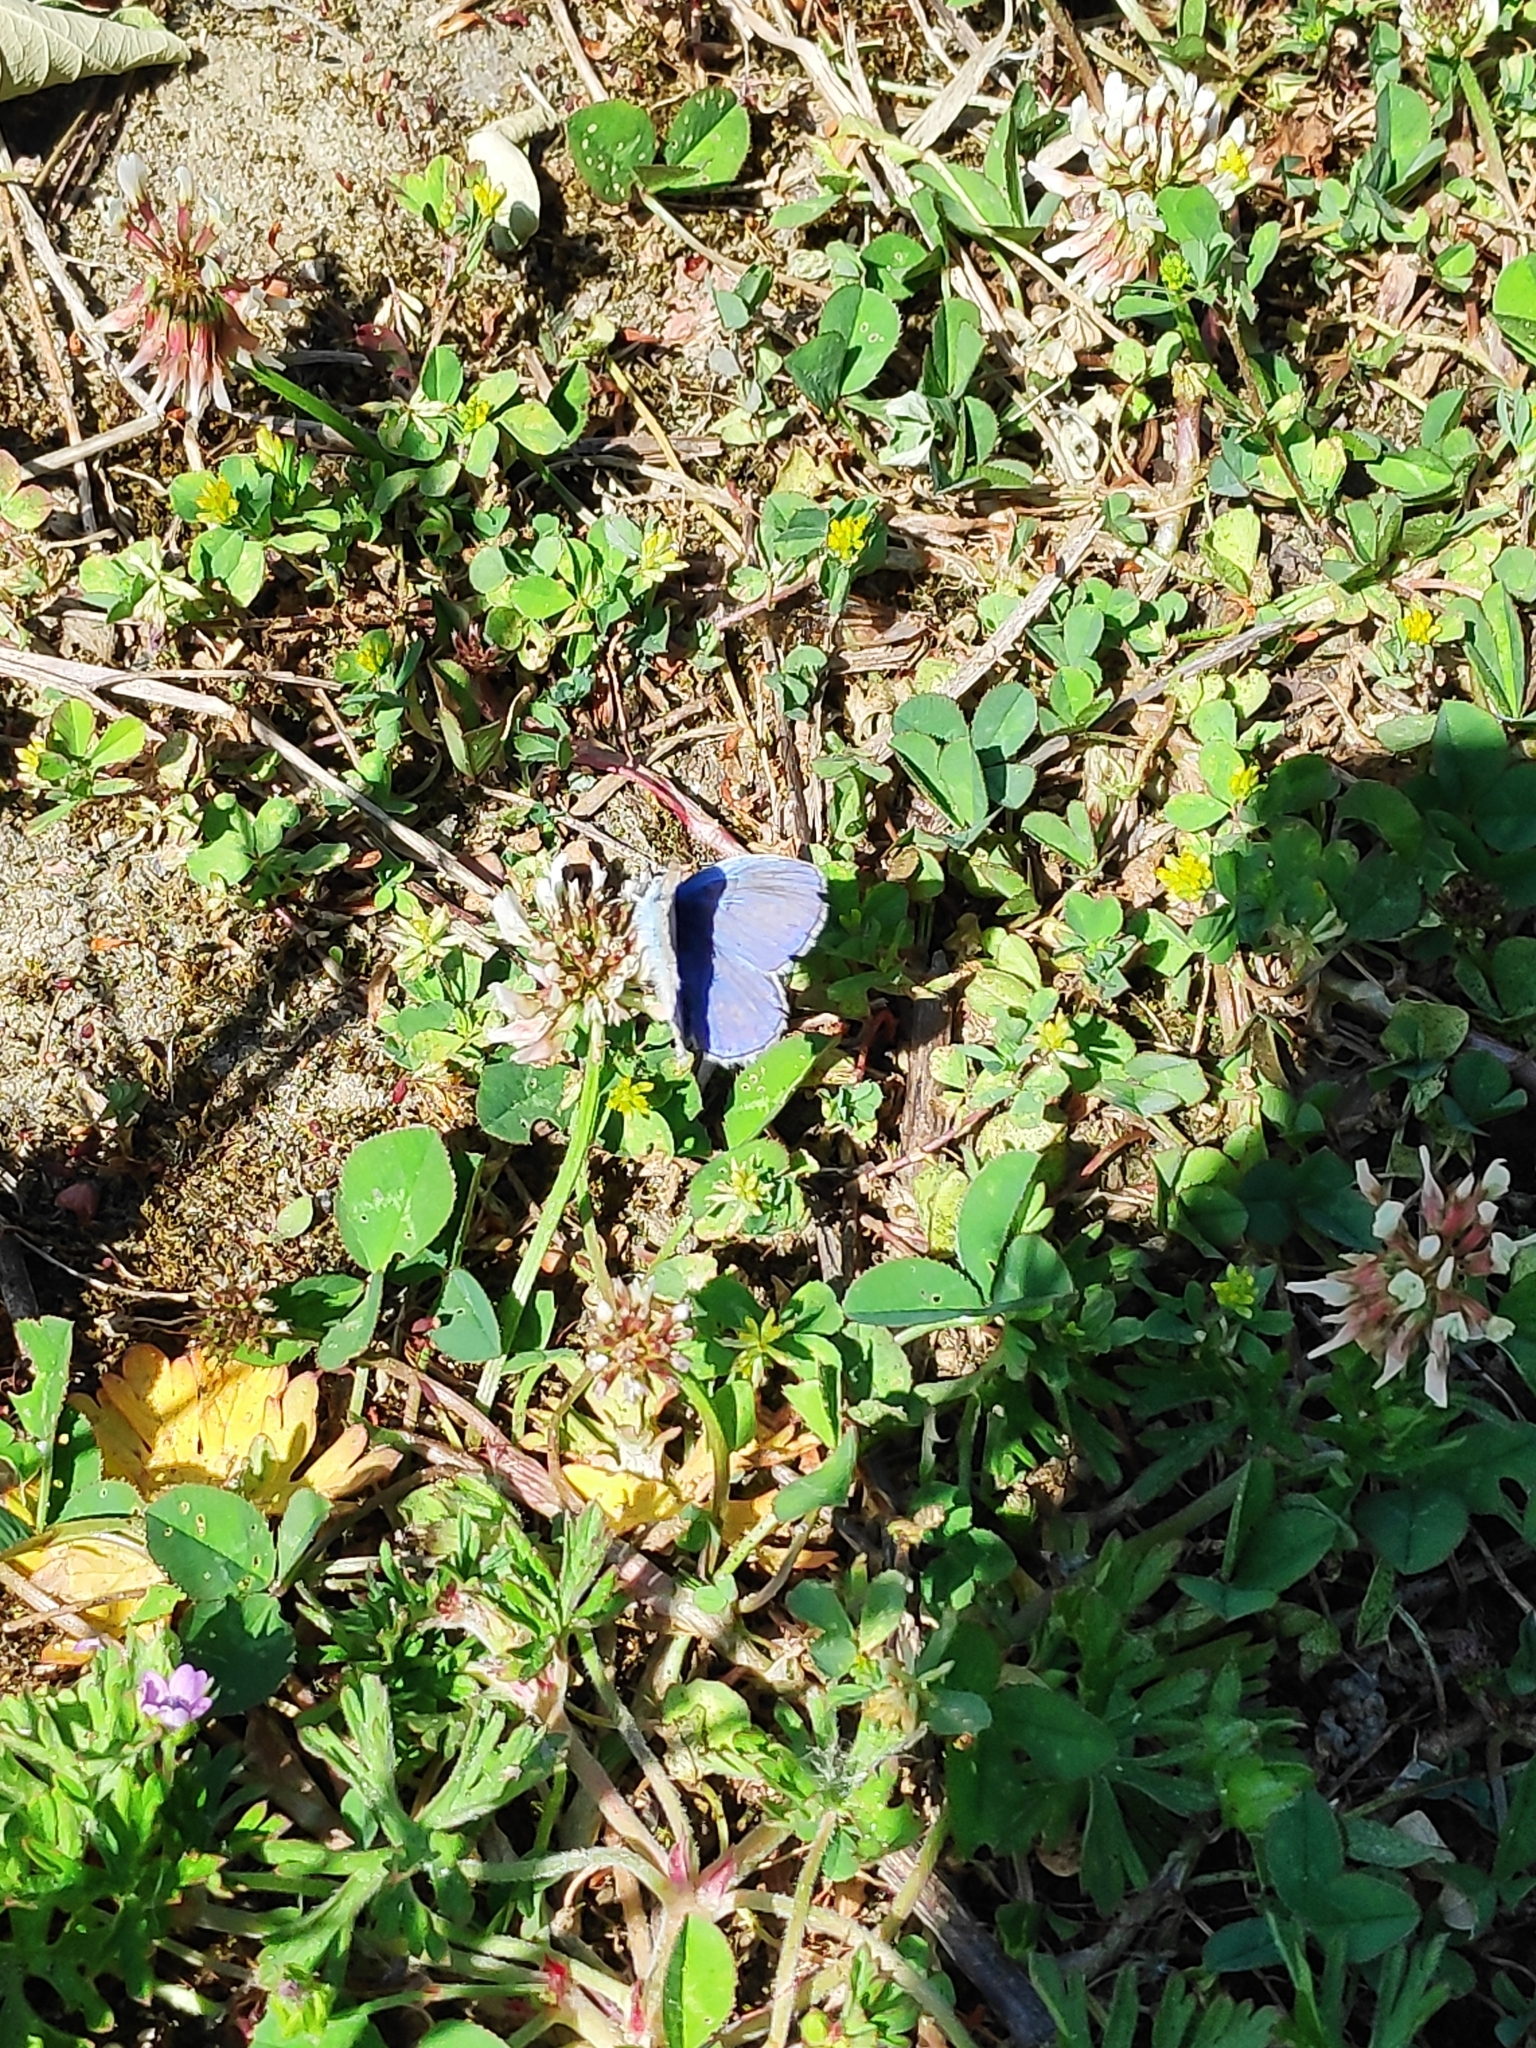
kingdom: Animalia
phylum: Arthropoda
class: Insecta
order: Lepidoptera
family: Lycaenidae
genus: Polyommatus
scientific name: Polyommatus icarus
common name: Common blue
